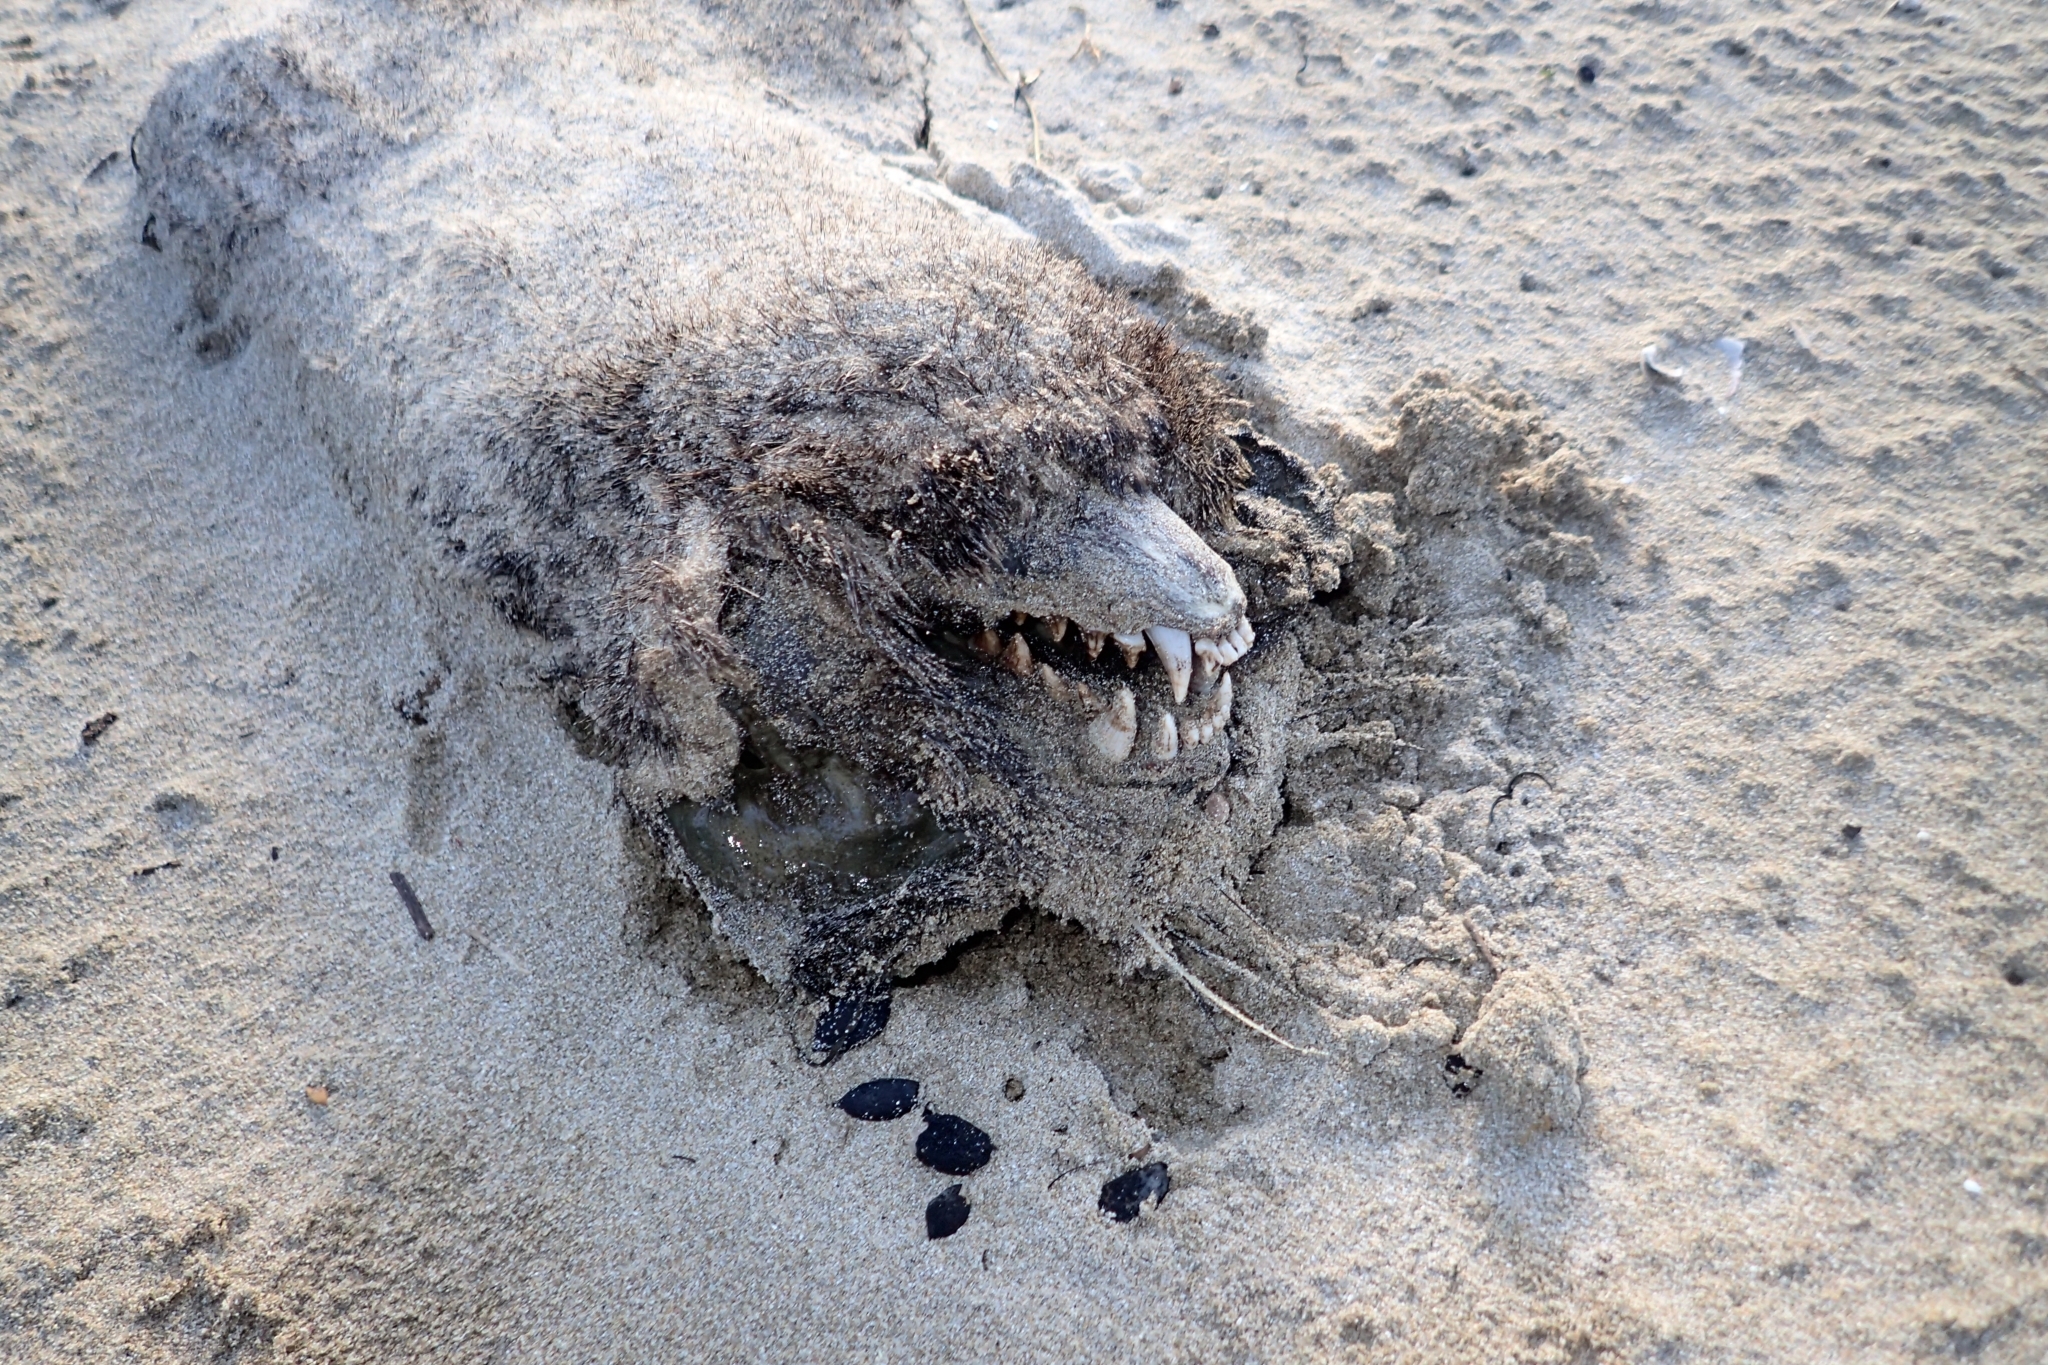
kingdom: Animalia
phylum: Chordata
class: Mammalia
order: Carnivora
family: Otariidae
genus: Arctocephalus
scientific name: Arctocephalus forsteri
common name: New zealand fur seal
